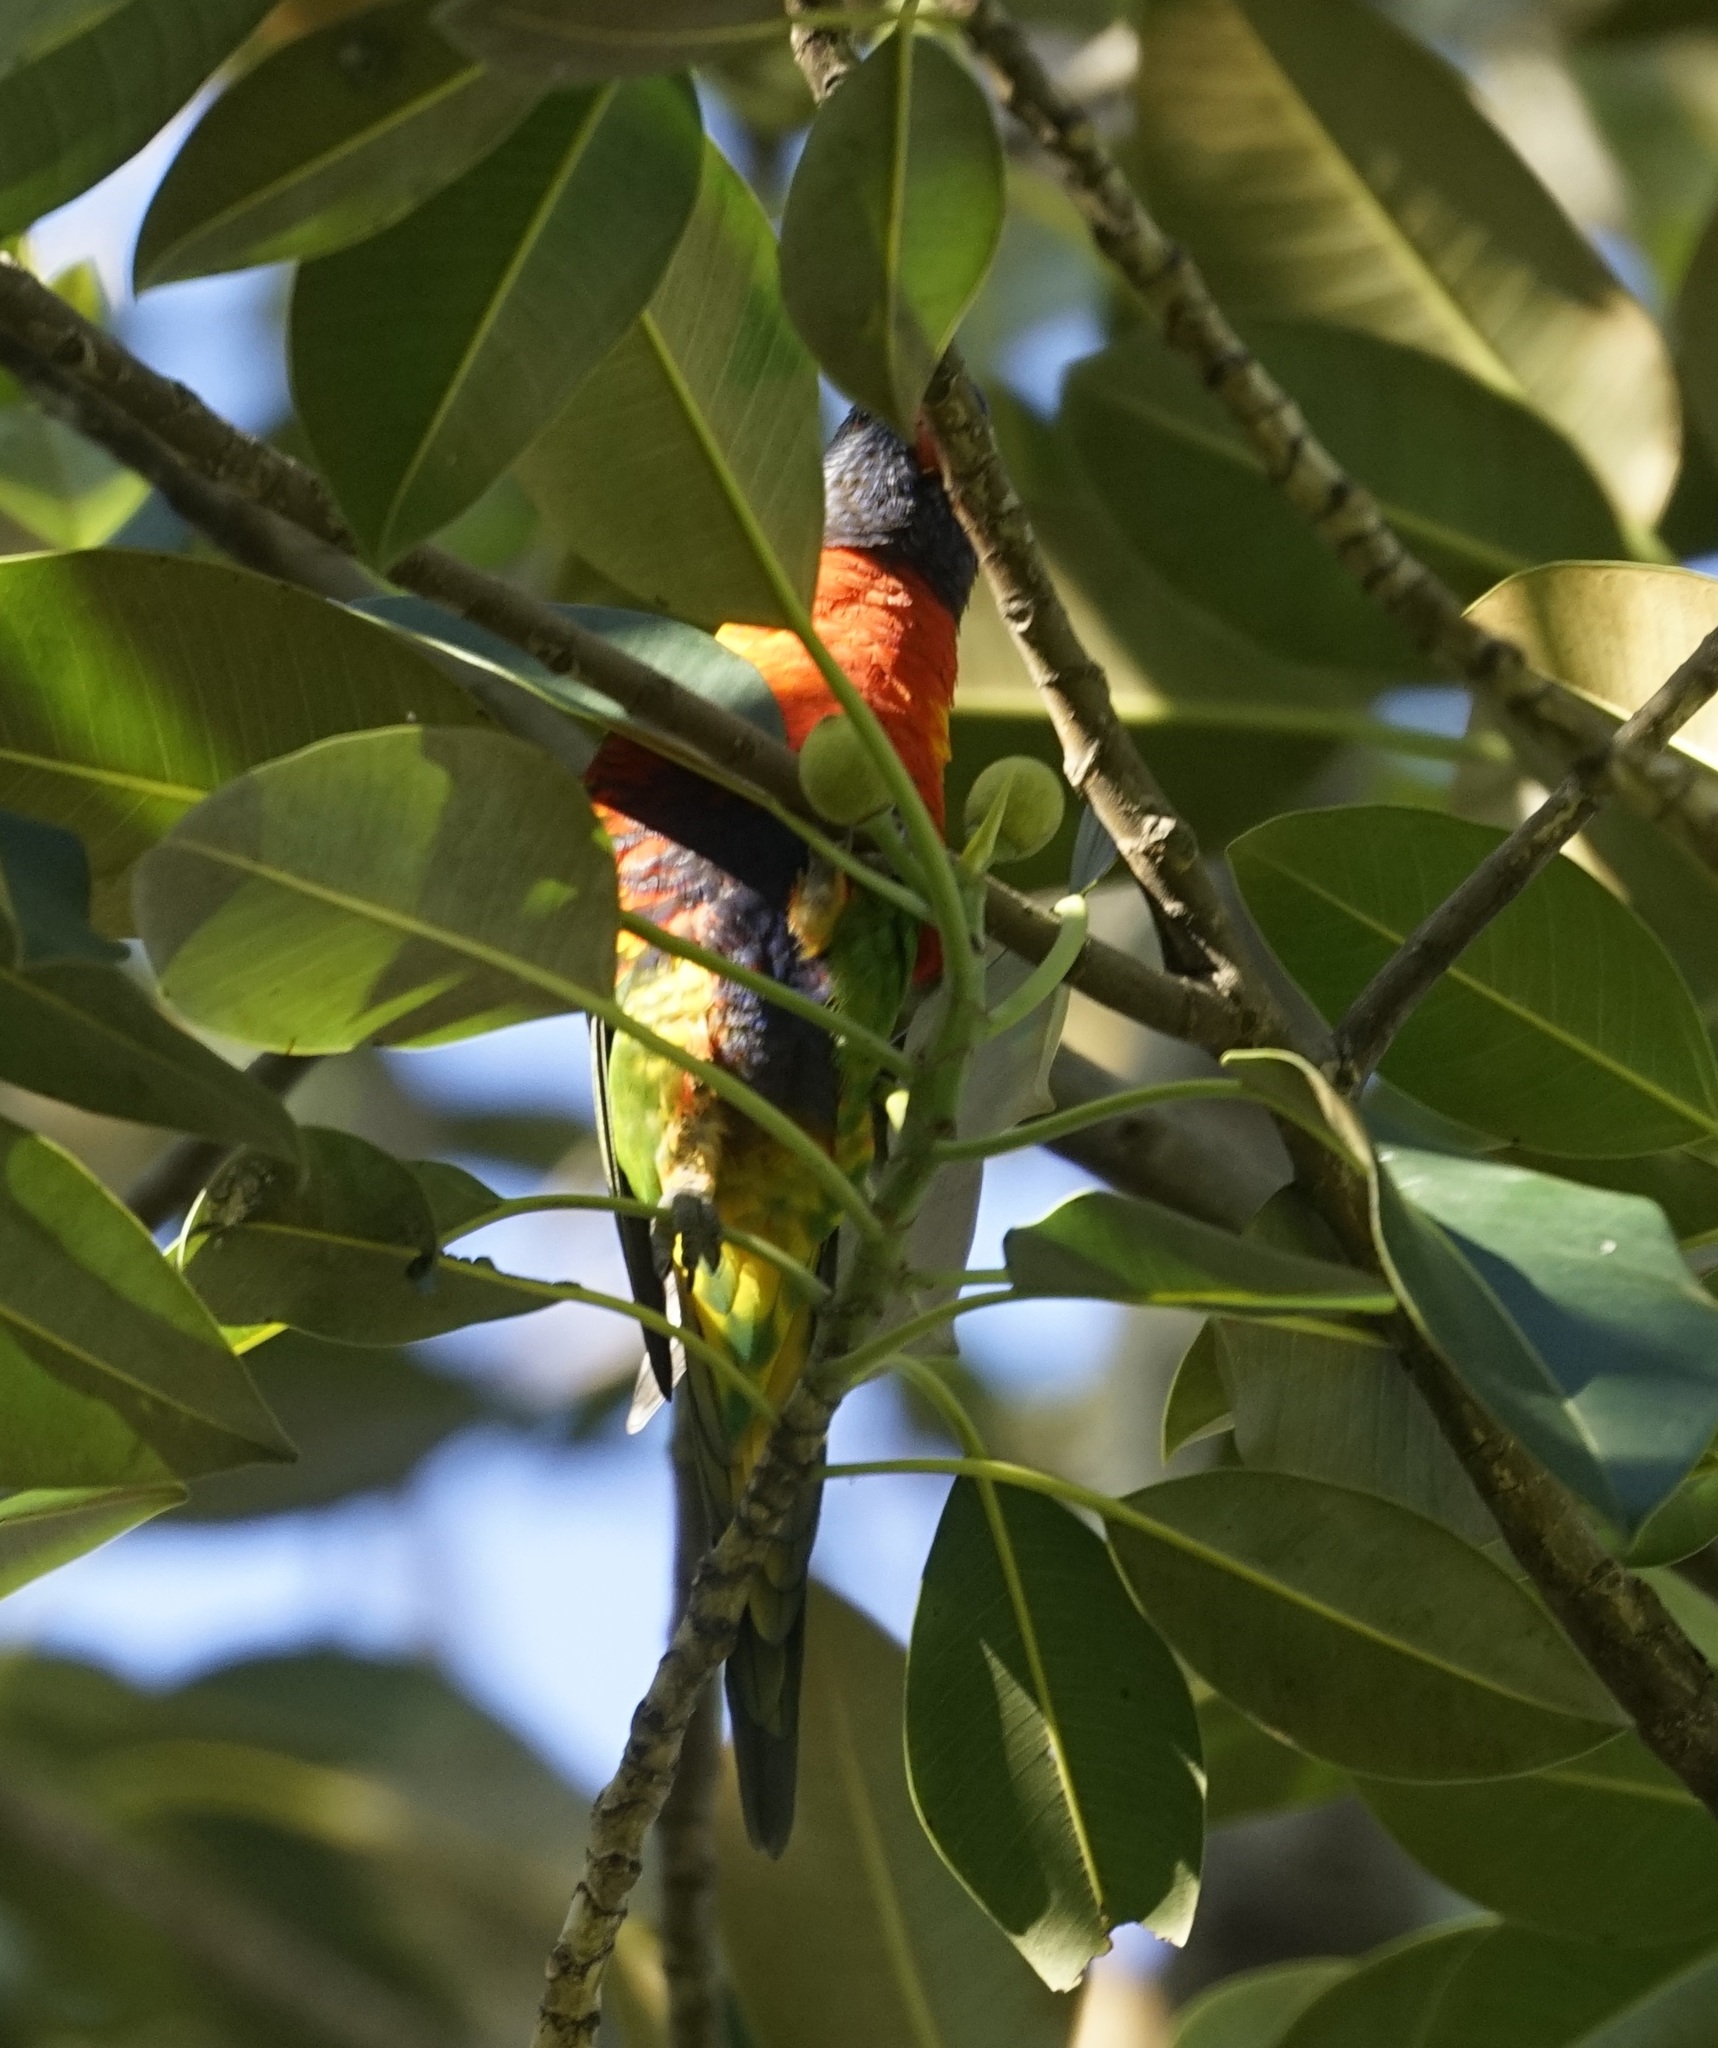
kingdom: Animalia
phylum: Chordata
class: Aves
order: Psittaciformes
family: Psittacidae
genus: Trichoglossus
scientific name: Trichoglossus haematodus
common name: Coconut lorikeet
